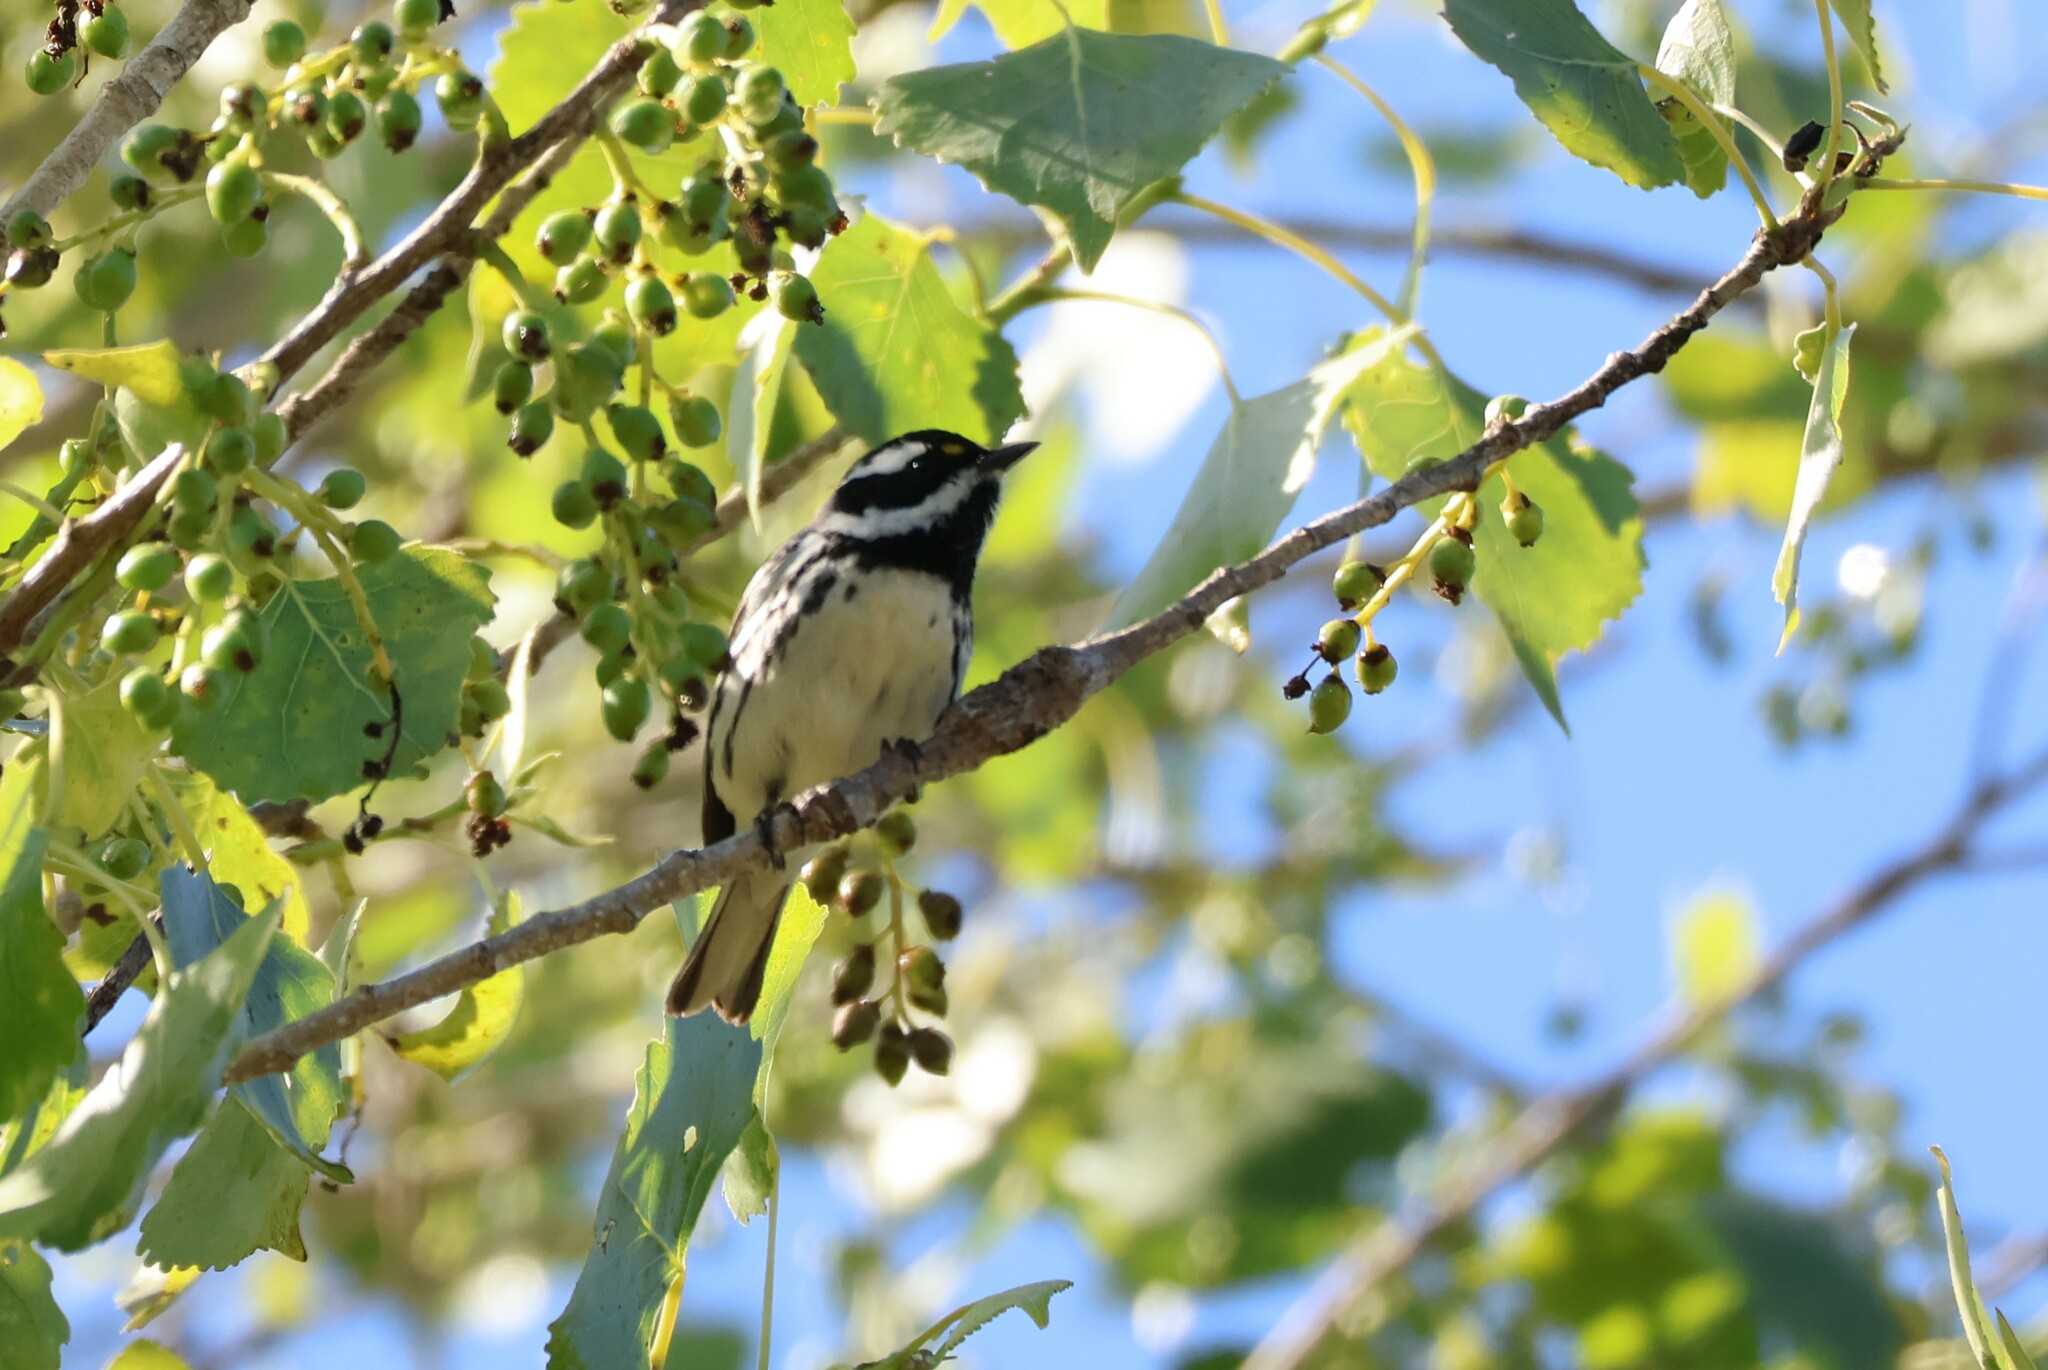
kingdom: Animalia
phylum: Chordata
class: Aves
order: Passeriformes
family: Parulidae
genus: Setophaga
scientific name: Setophaga nigrescens
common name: Black-throated gray warbler
